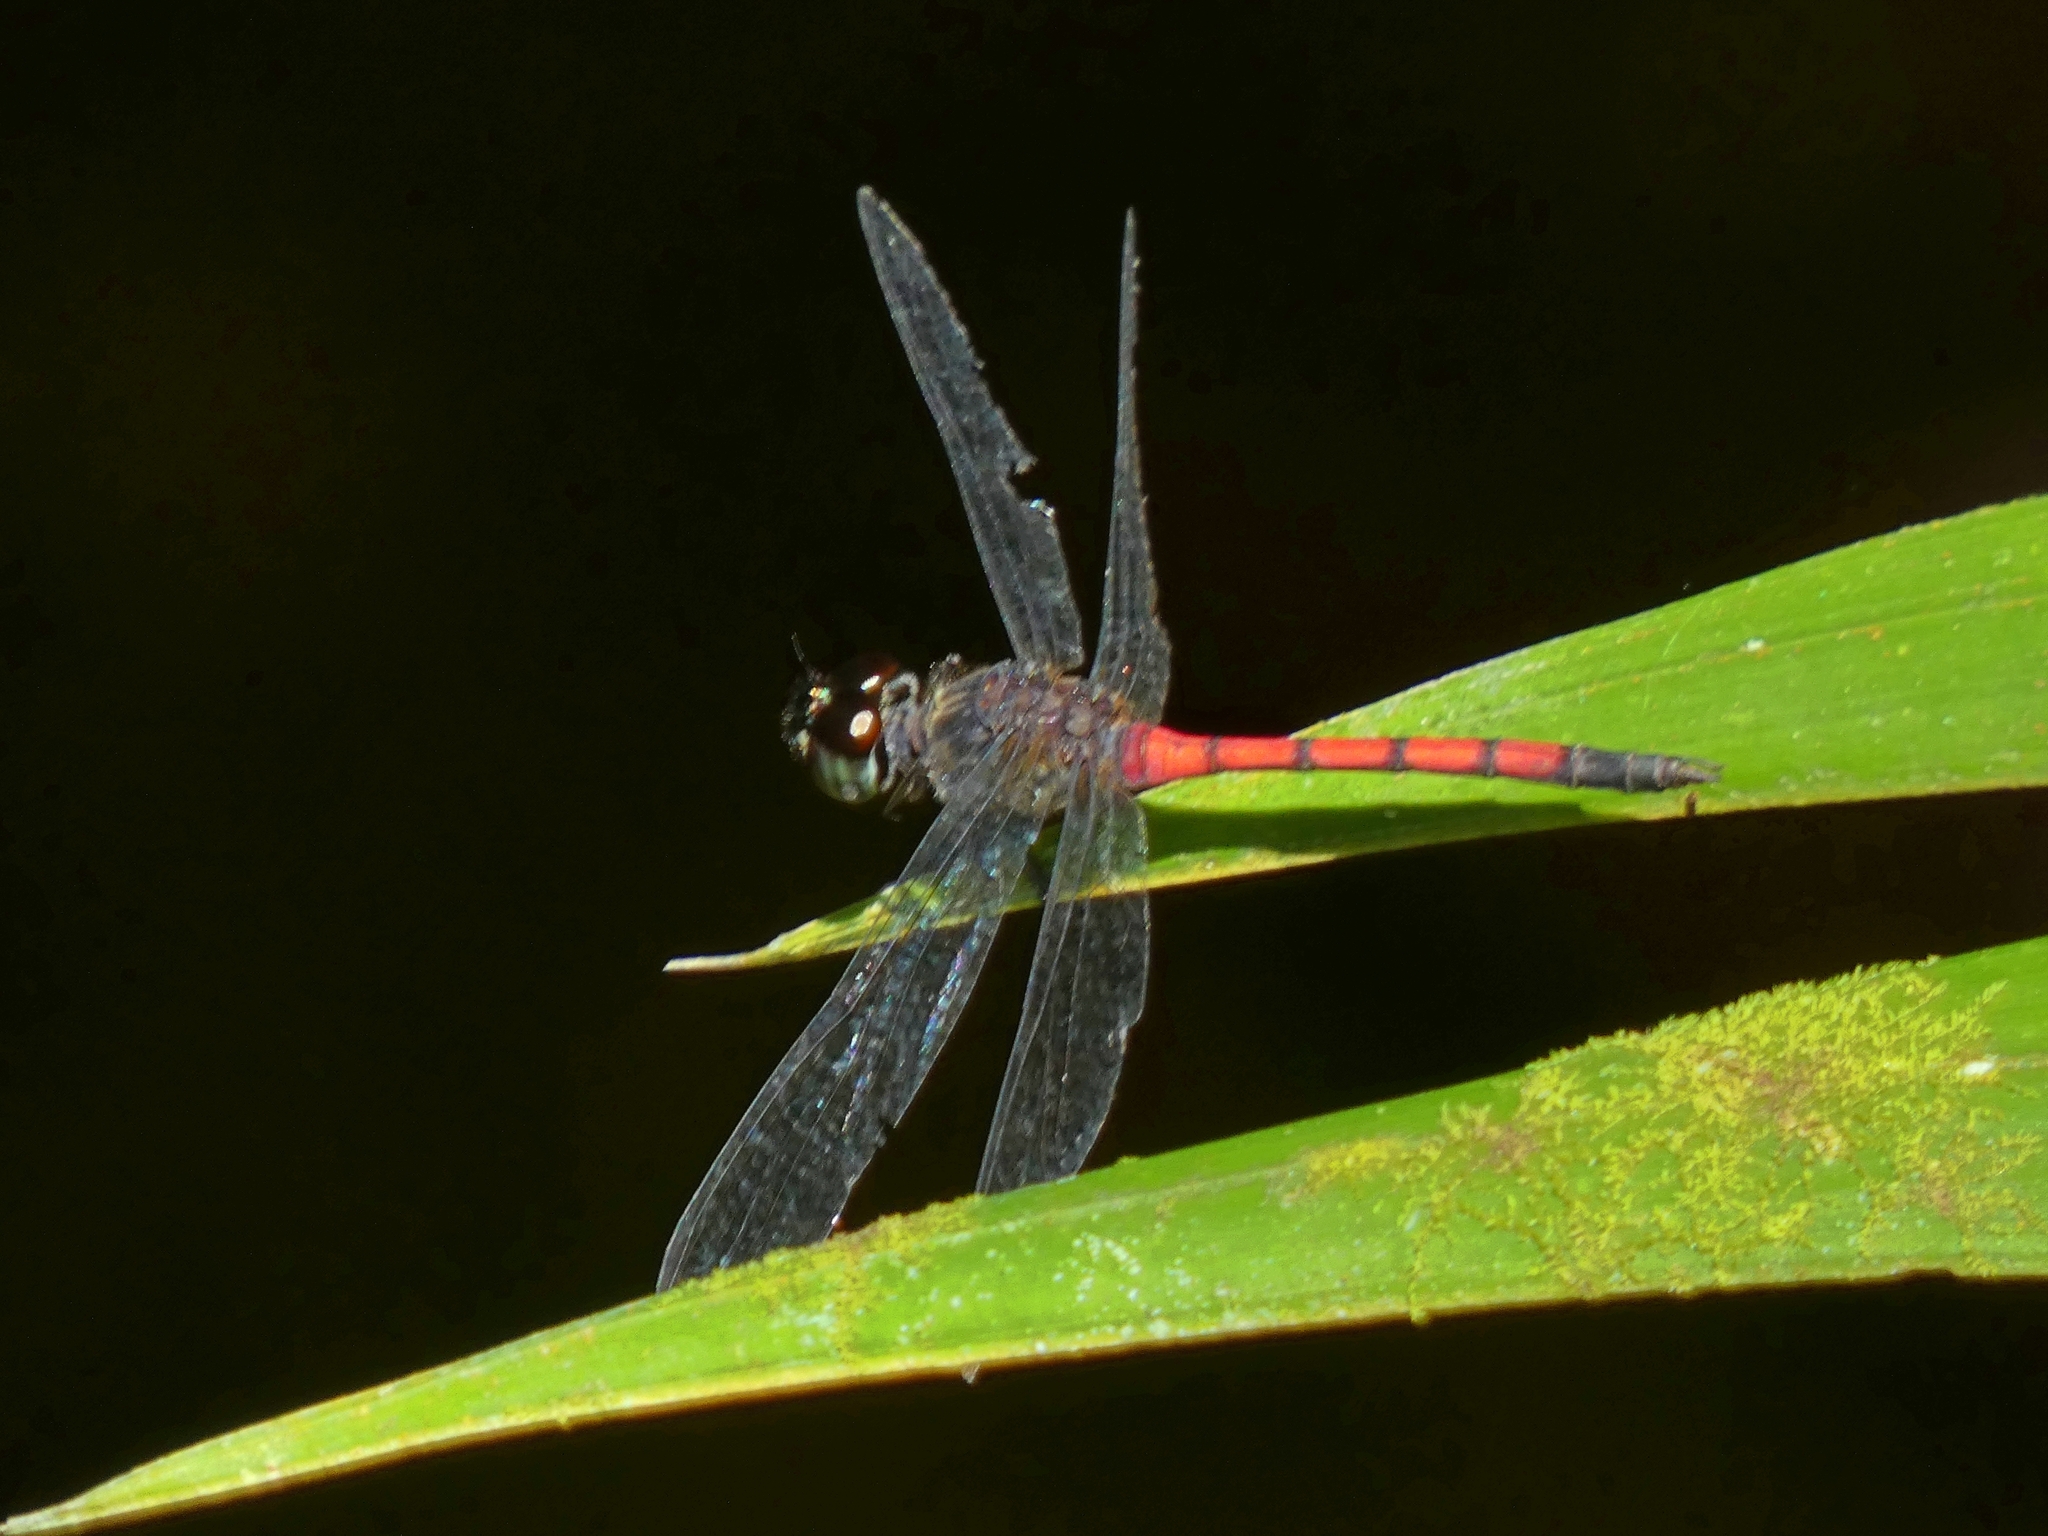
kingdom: Animalia
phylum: Arthropoda
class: Insecta
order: Odonata
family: Libellulidae
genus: Agrionoptera
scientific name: Agrionoptera insignis
